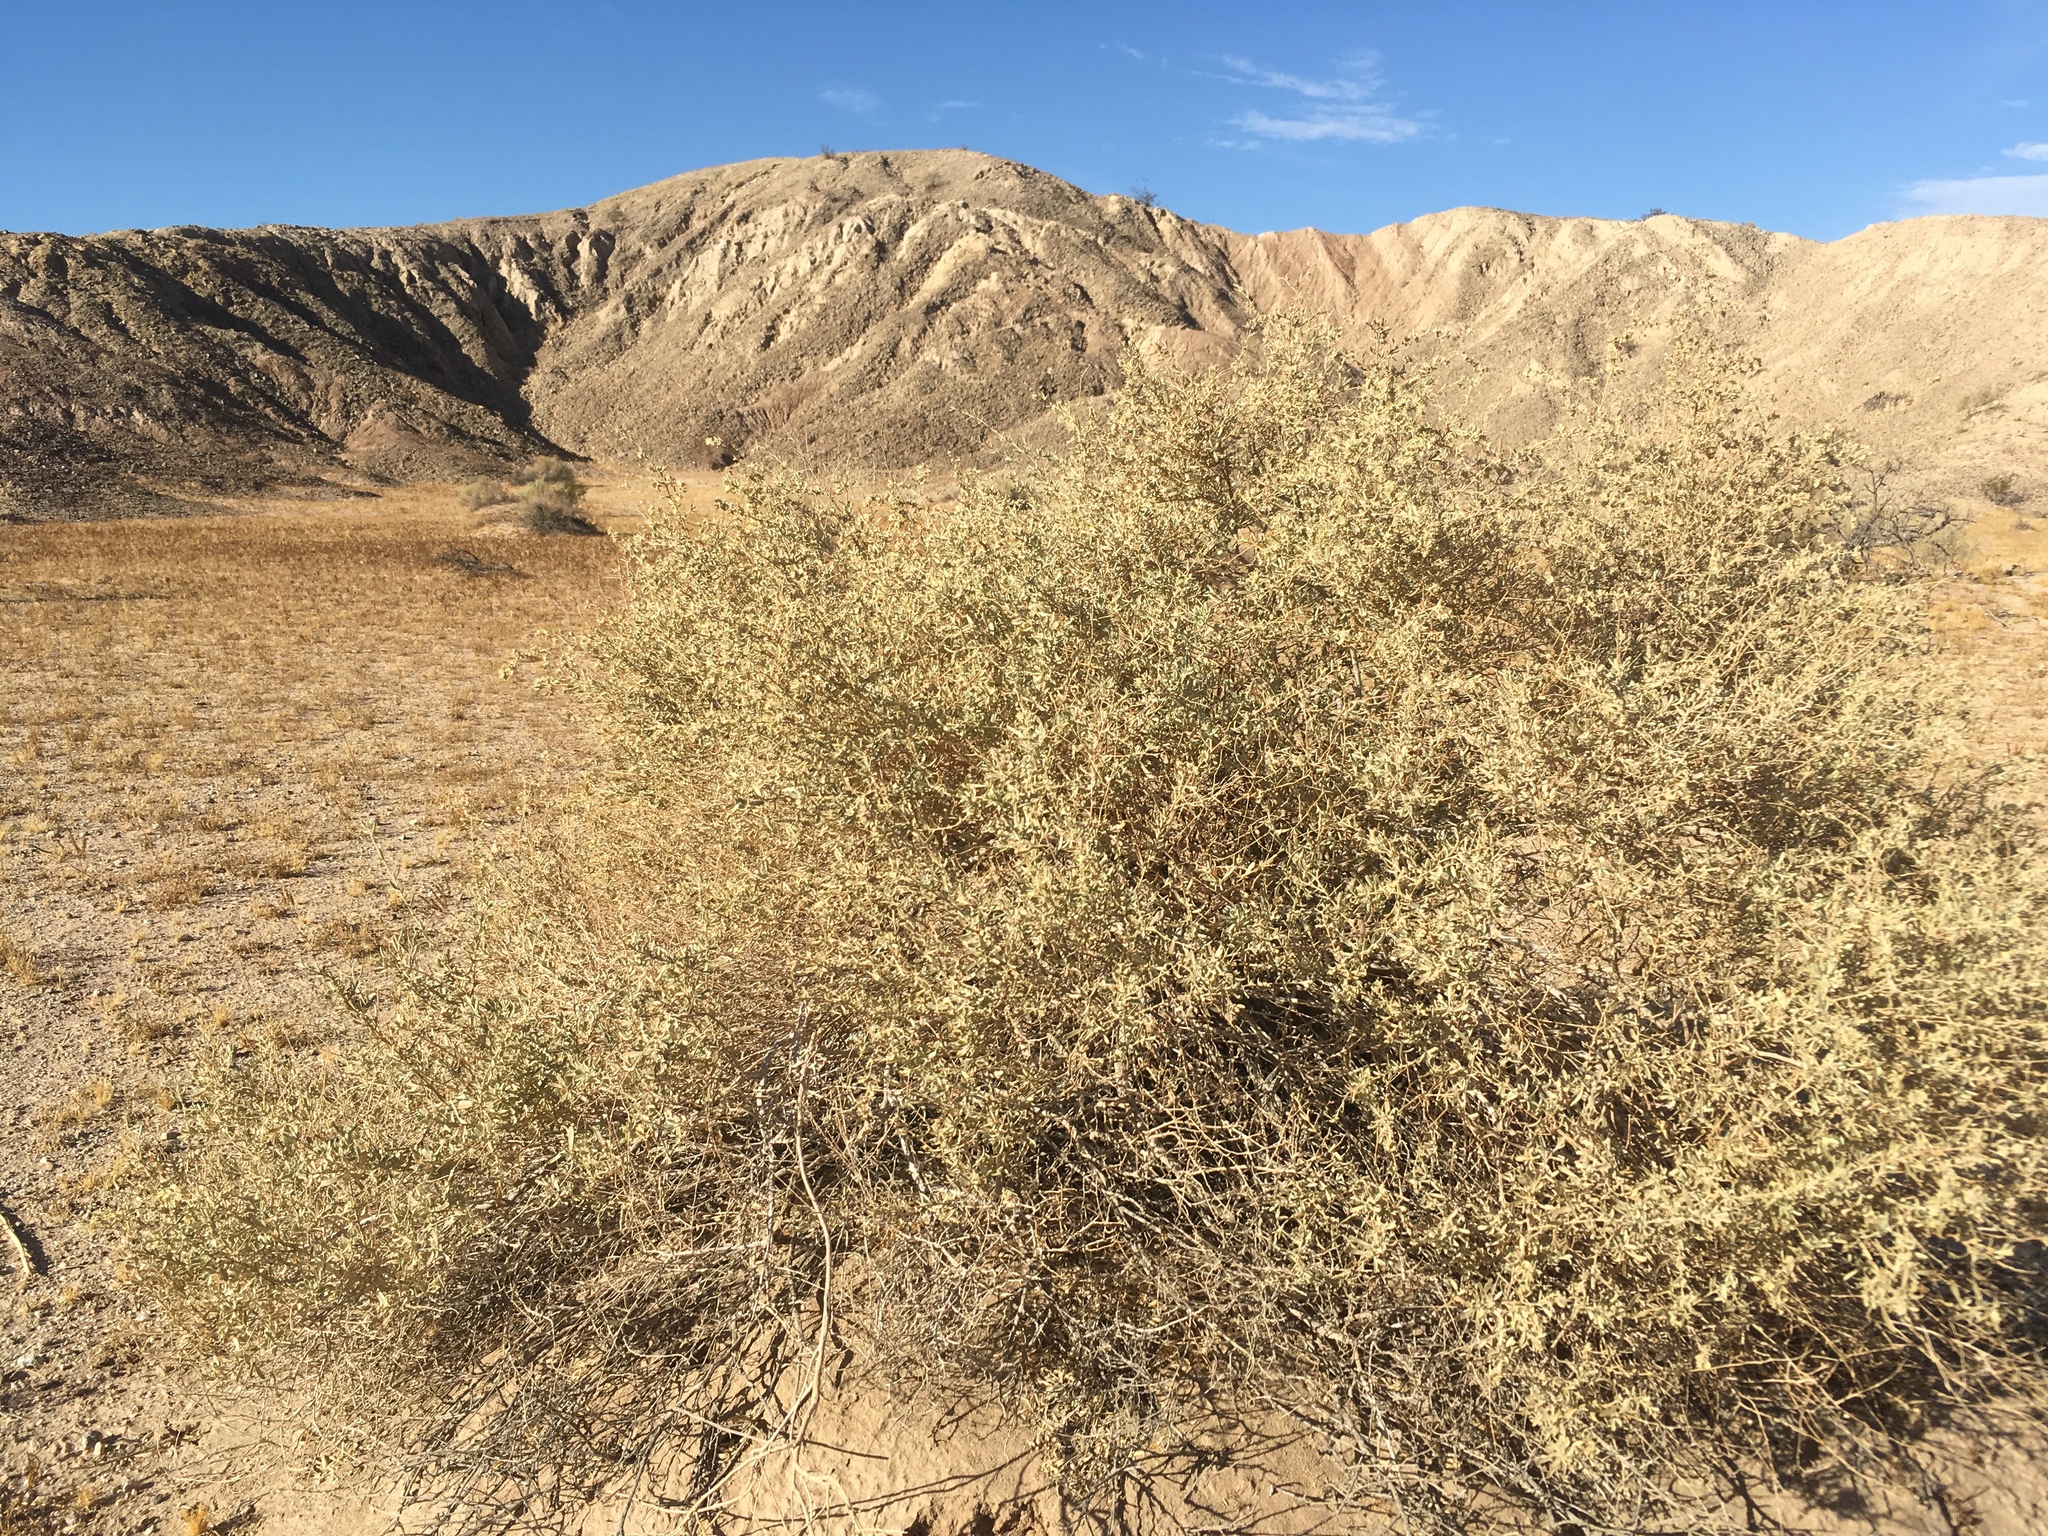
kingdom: Plantae
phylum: Tracheophyta
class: Magnoliopsida
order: Caryophyllales
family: Amaranthaceae
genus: Atriplex
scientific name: Atriplex canescens
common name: Four-wing saltbush
